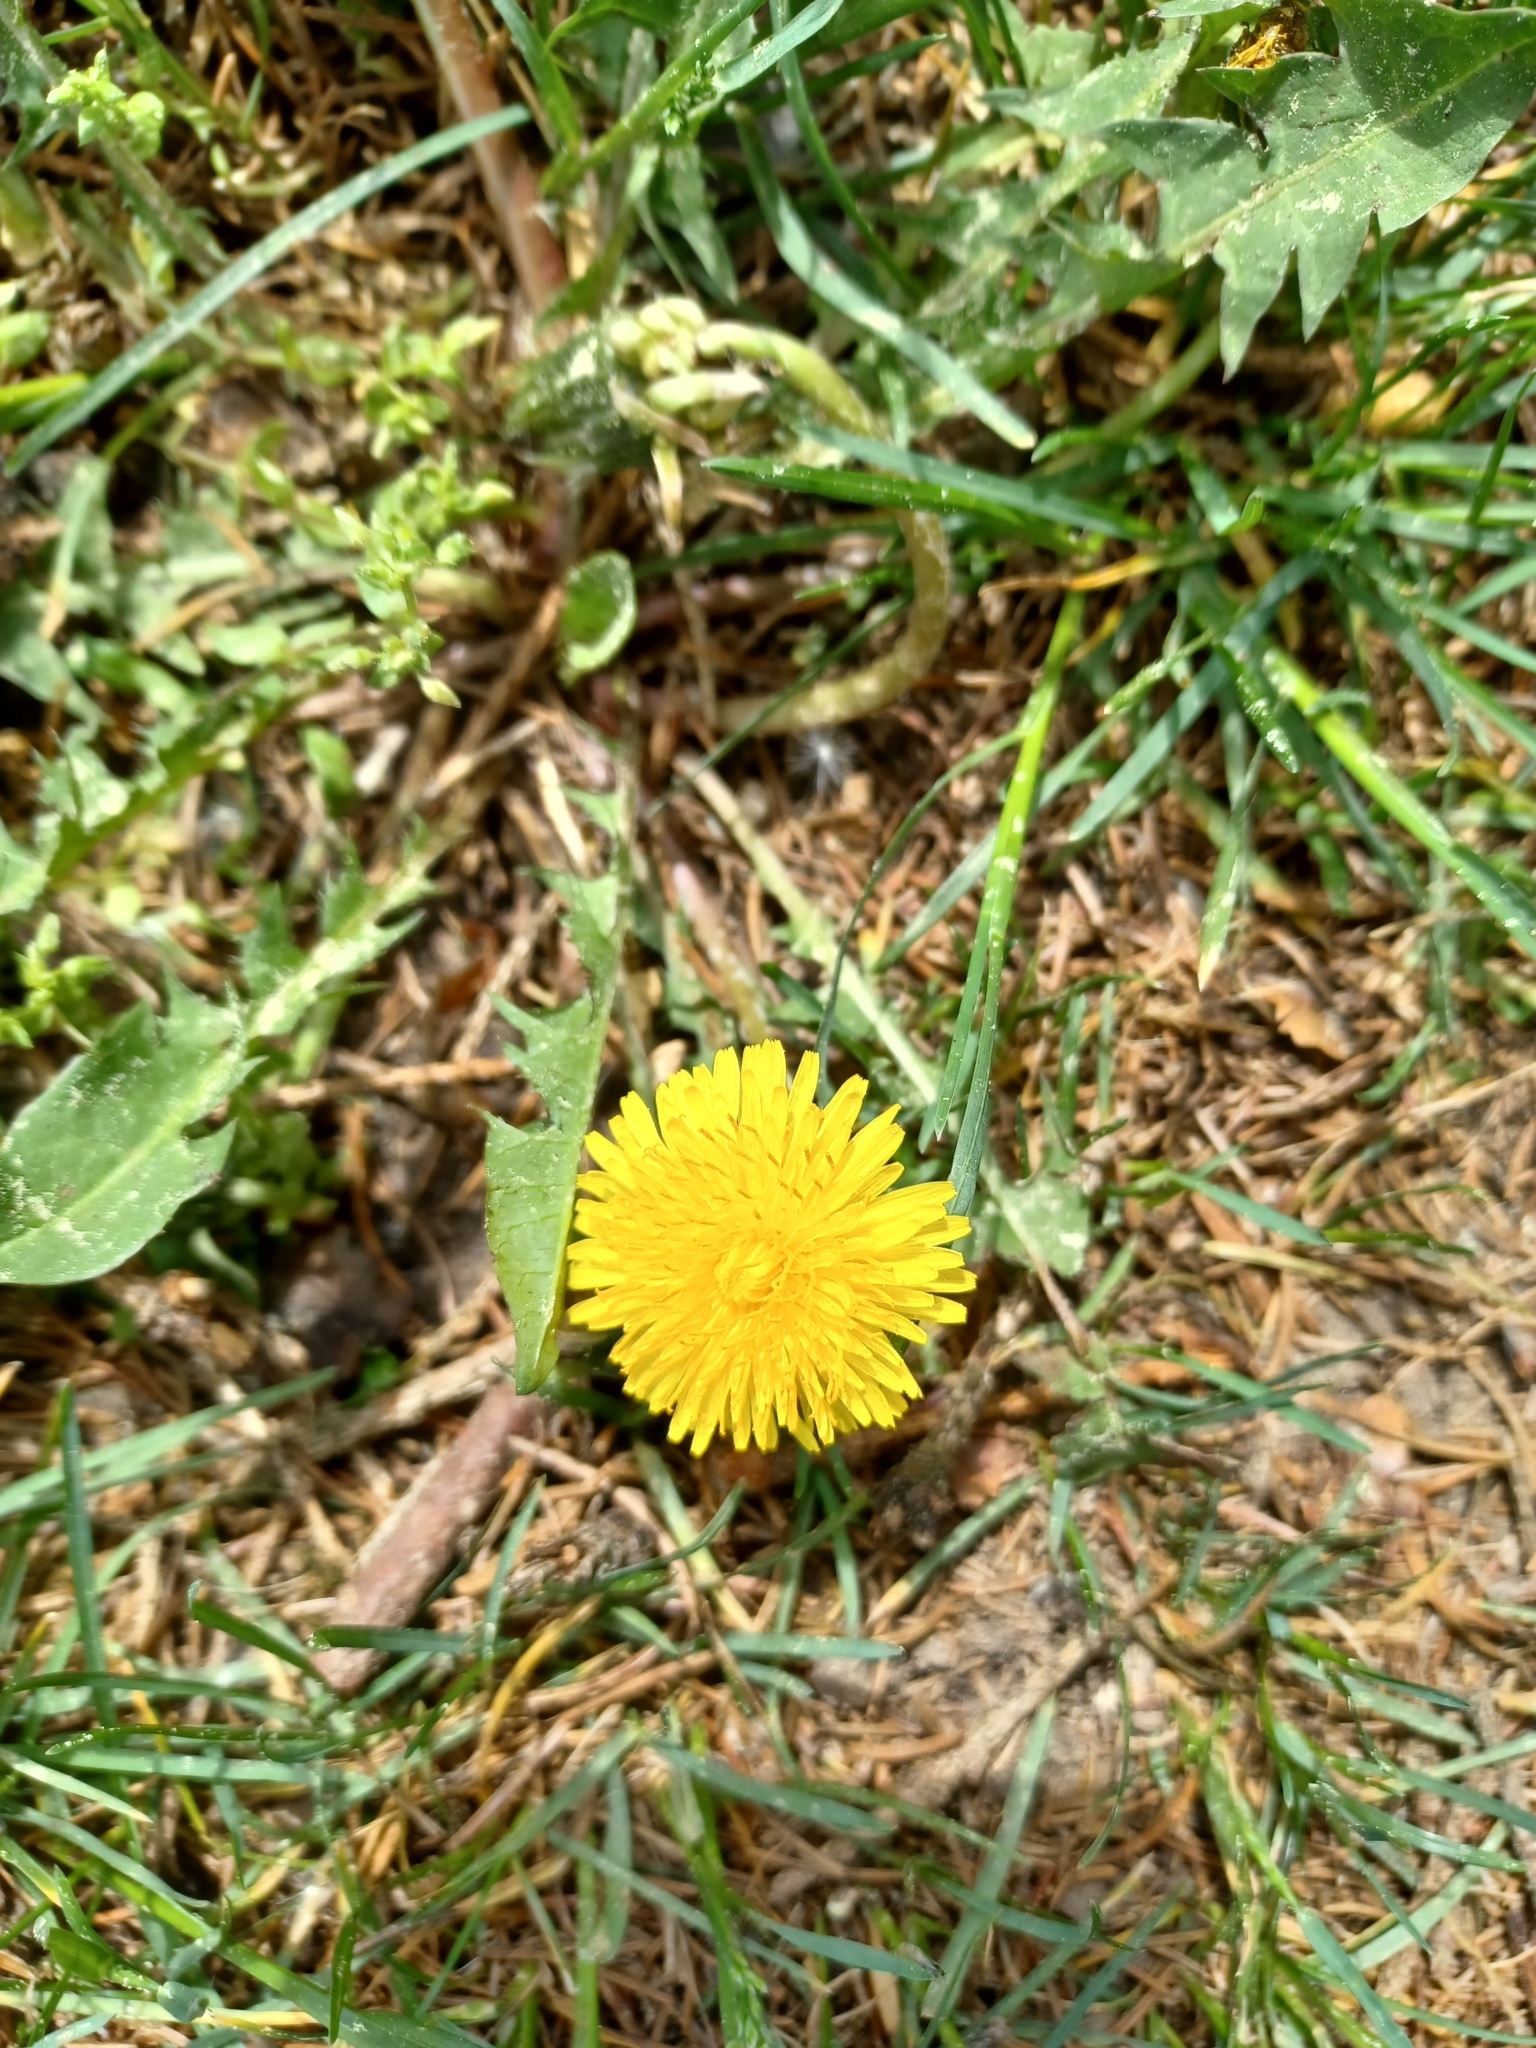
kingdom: Plantae
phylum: Tracheophyta
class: Magnoliopsida
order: Asterales
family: Asteraceae
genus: Taraxacum
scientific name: Taraxacum officinale
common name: Common dandelion
